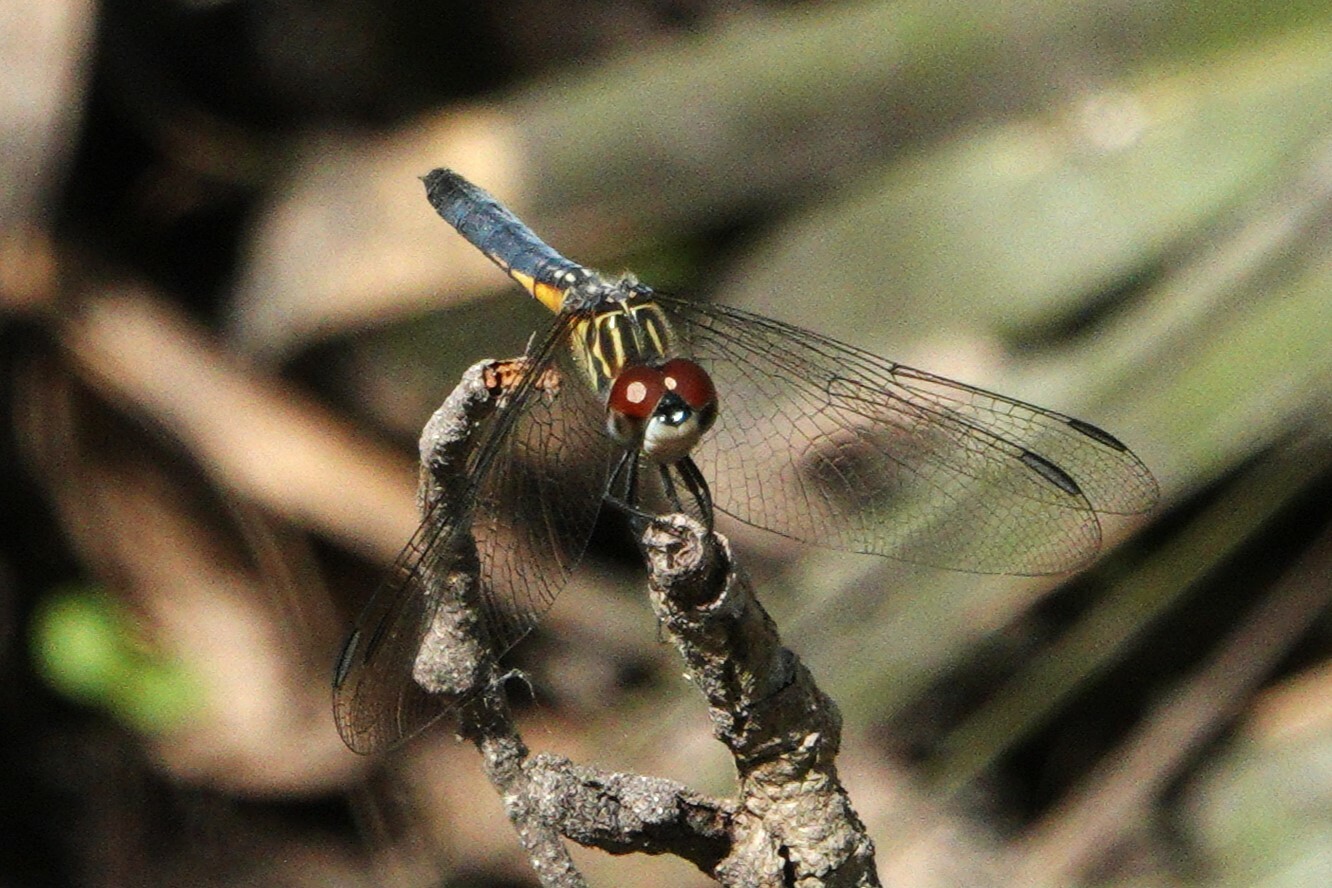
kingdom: Animalia
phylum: Arthropoda
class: Insecta
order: Odonata
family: Libellulidae
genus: Pachydiplax
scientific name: Pachydiplax longipennis
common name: Blue dasher
